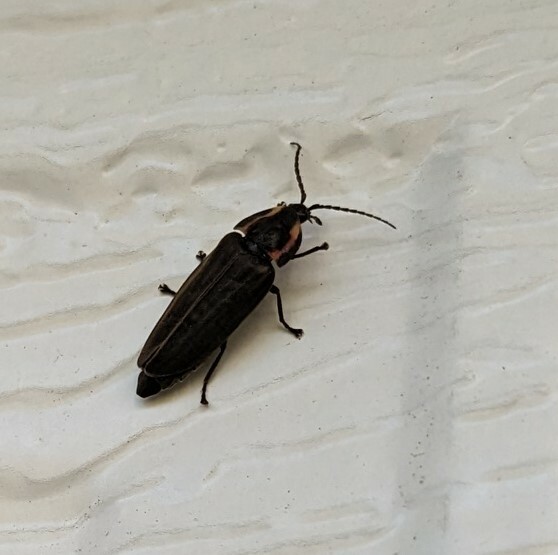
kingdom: Animalia
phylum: Arthropoda
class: Insecta
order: Coleoptera
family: Lampyridae
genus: Photinus
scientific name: Photinus corrusca
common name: Winter firefly
